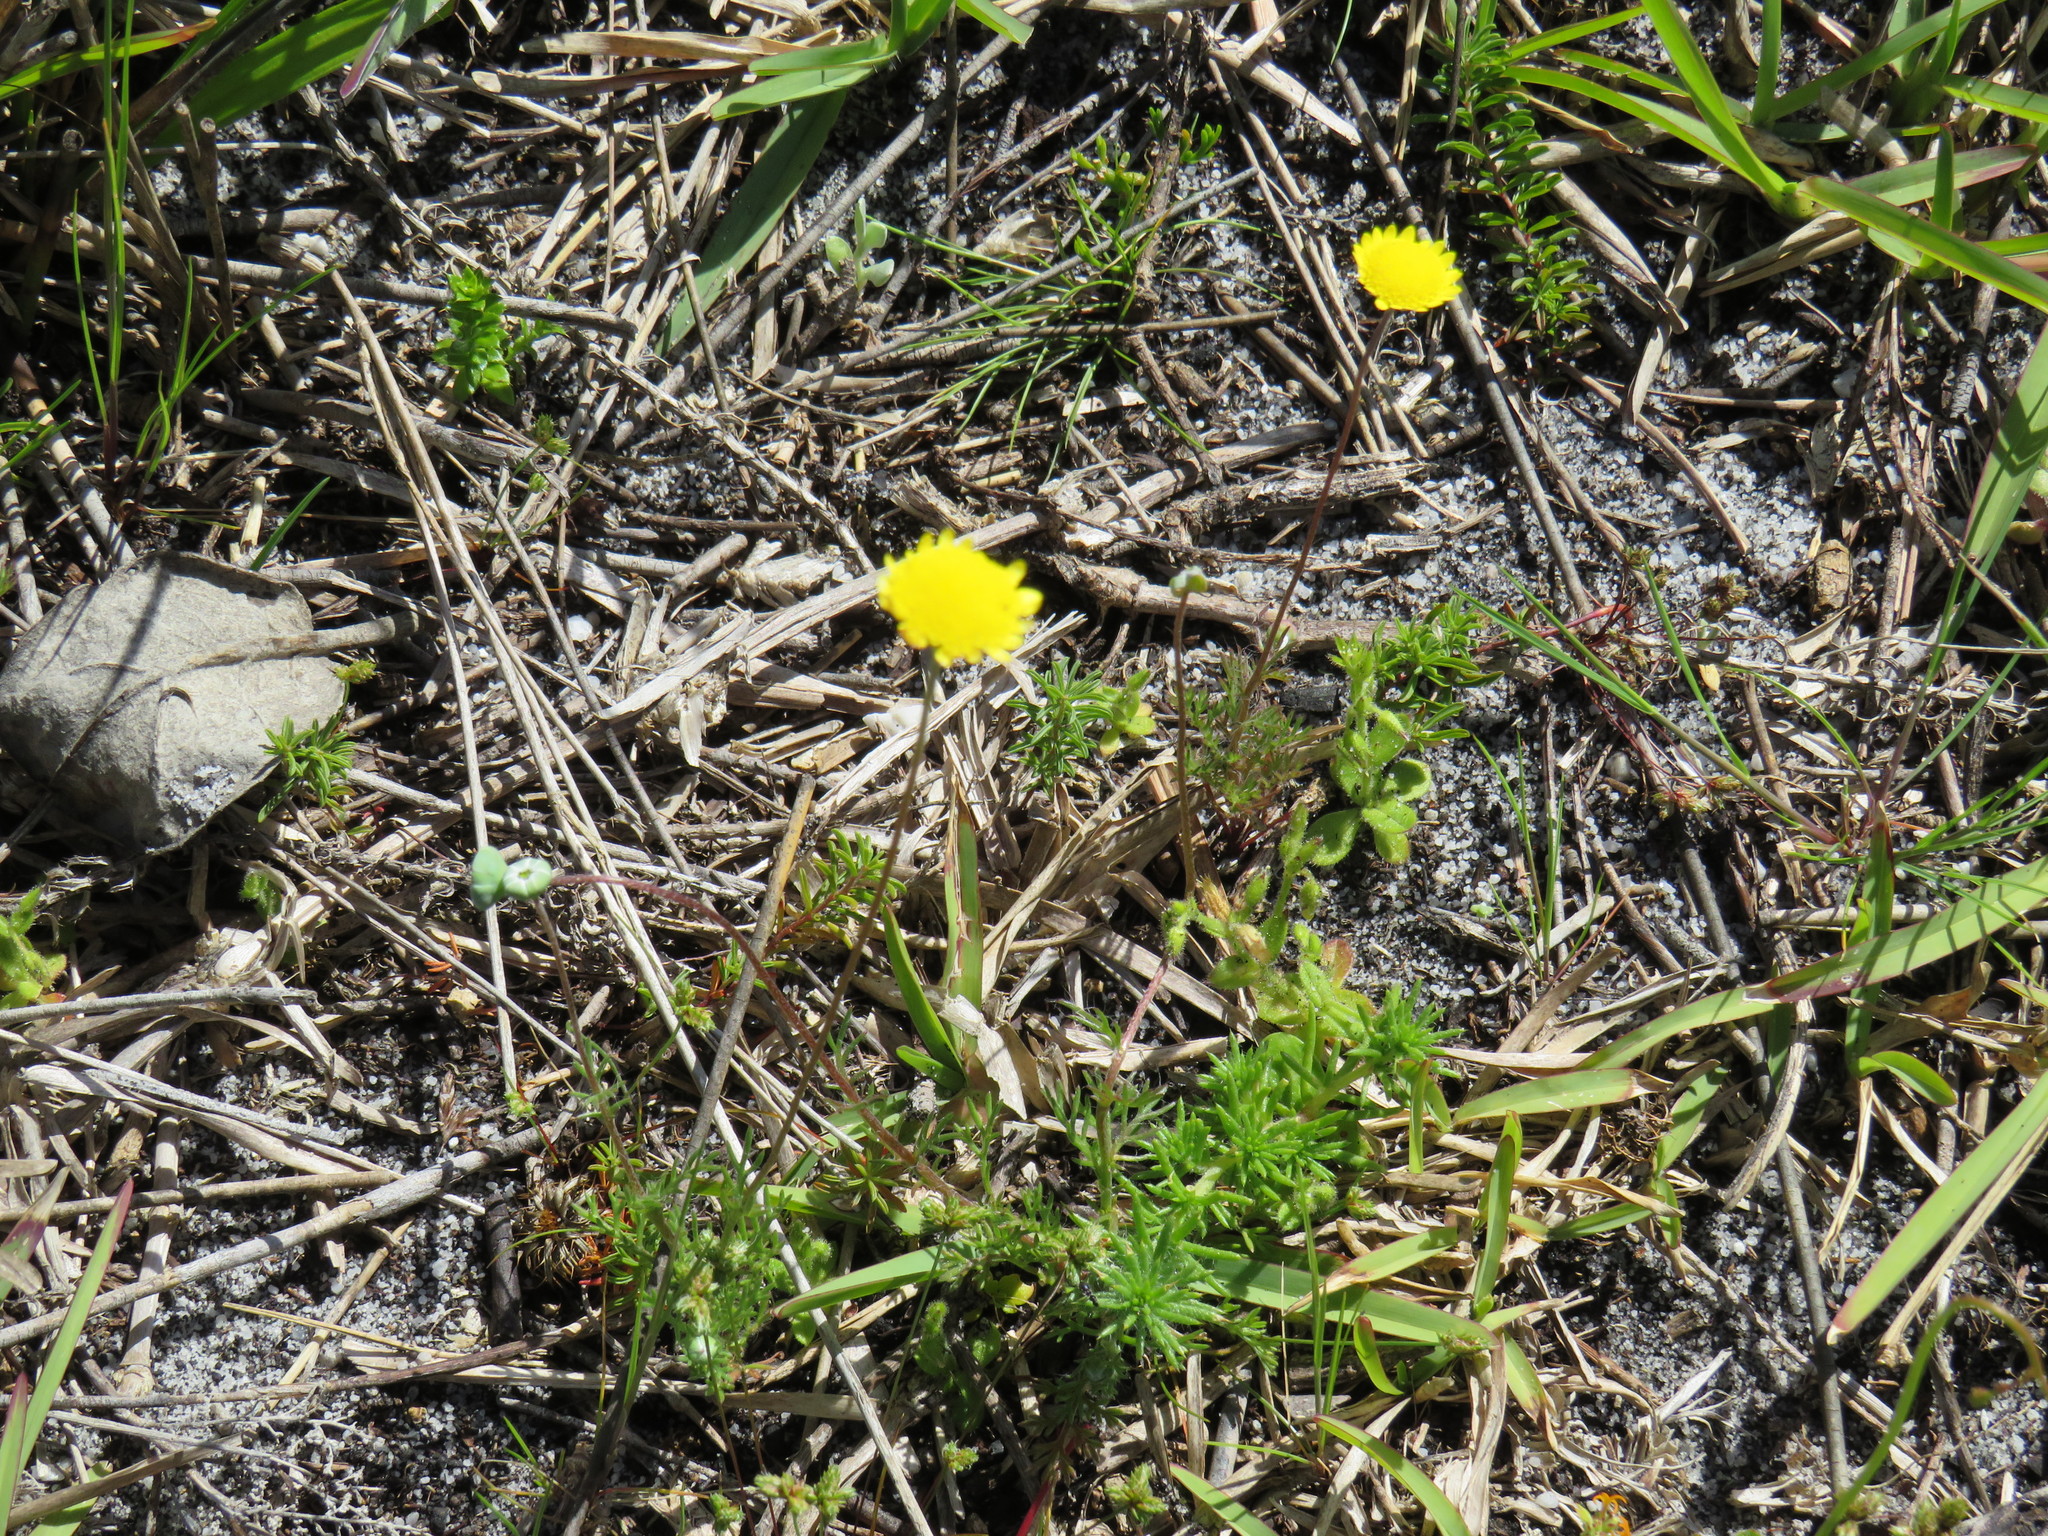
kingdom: Plantae
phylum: Tracheophyta
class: Magnoliopsida
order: Asterales
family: Asteraceae
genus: Cotula
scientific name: Cotula pruinosa
